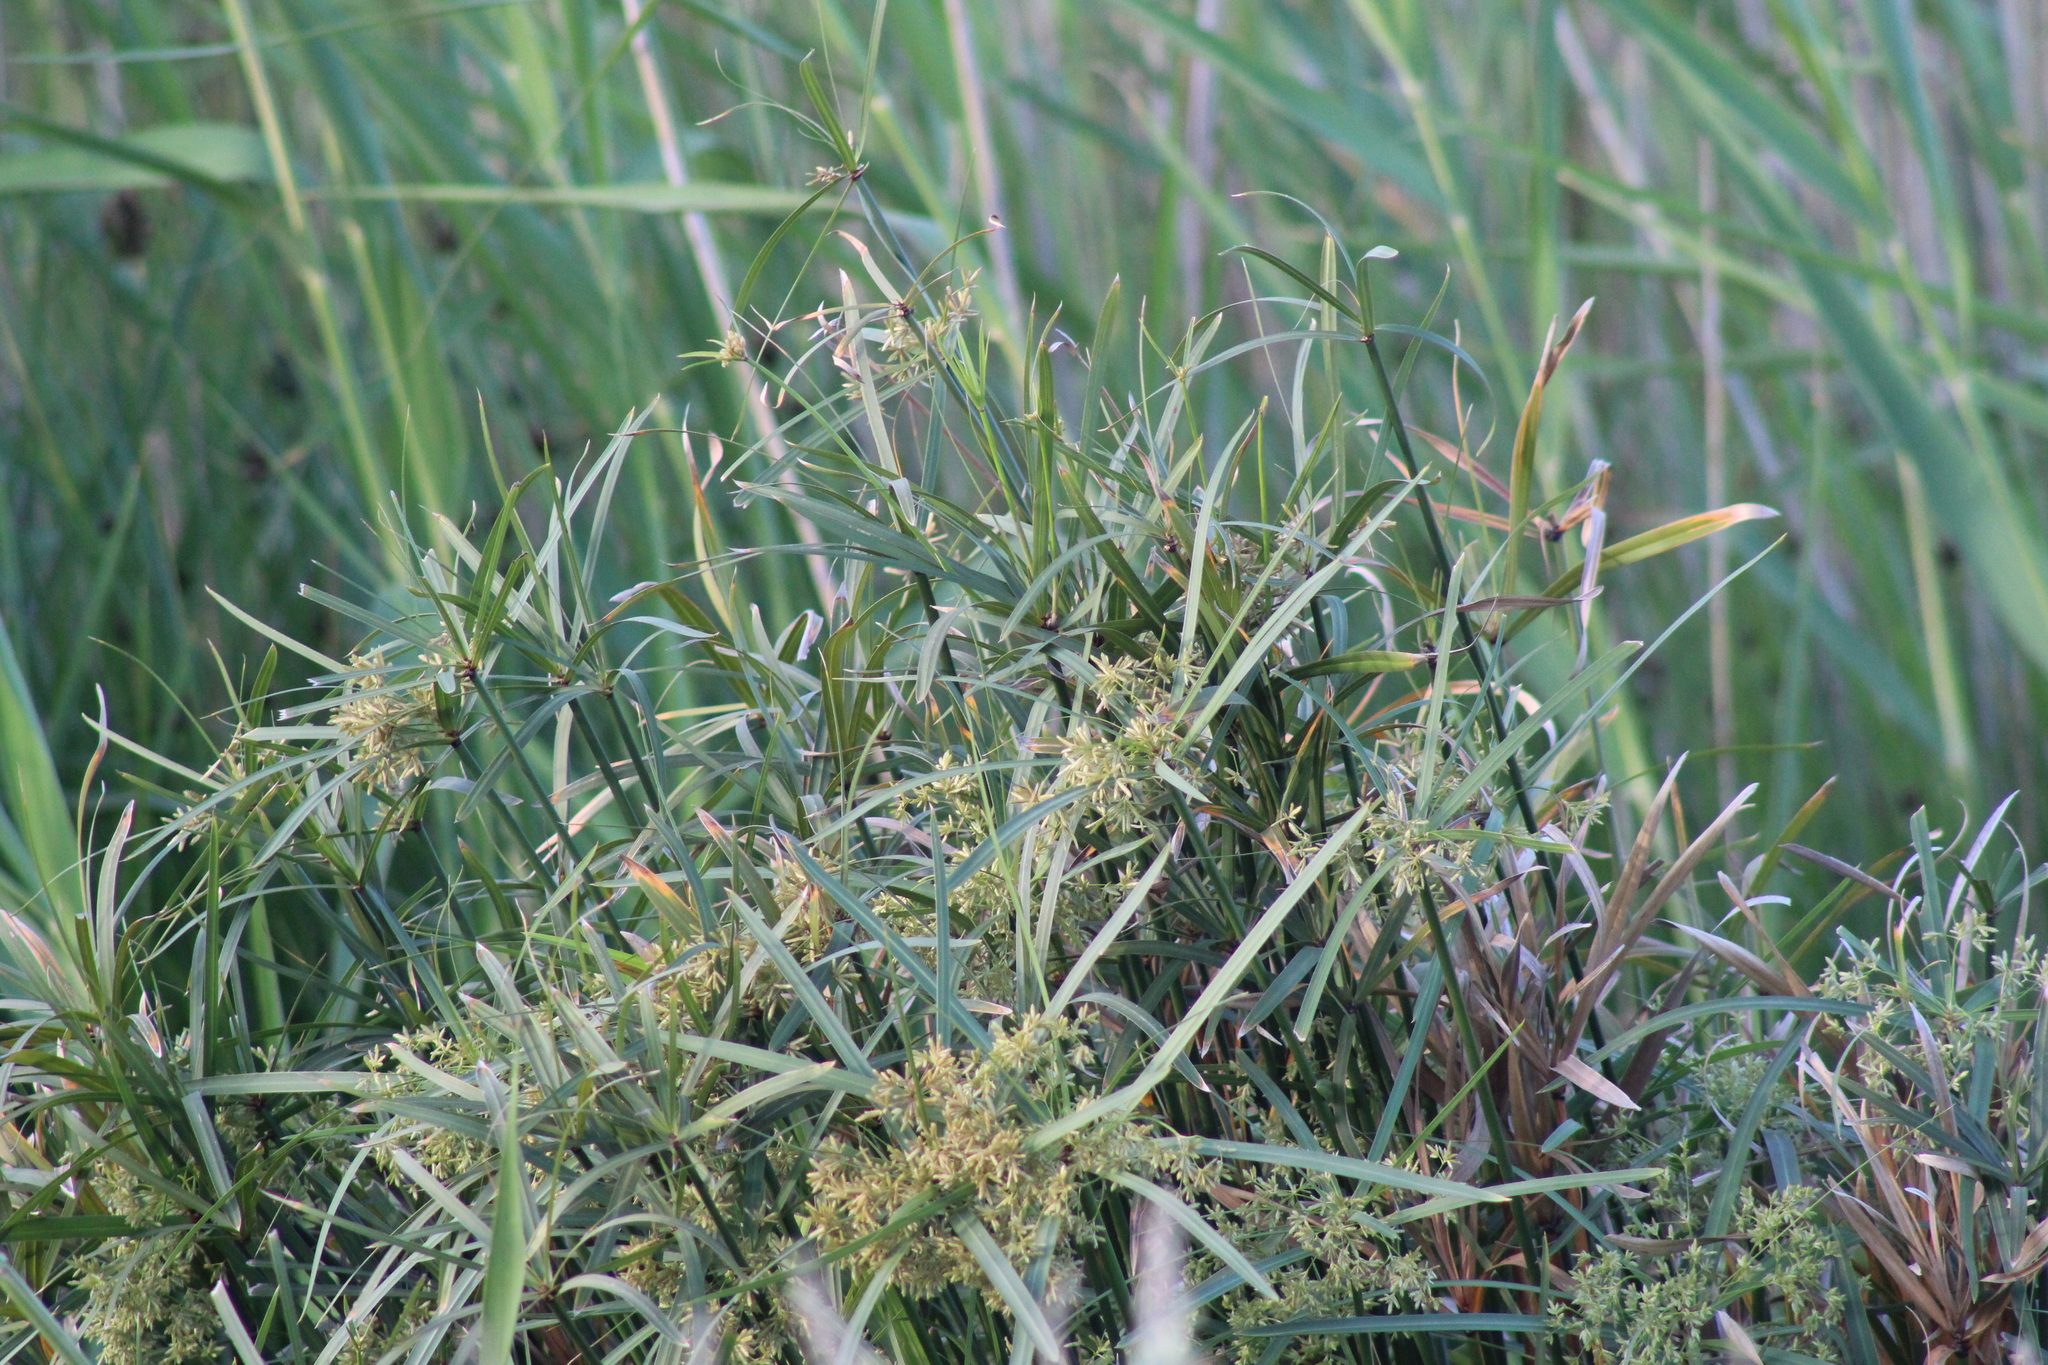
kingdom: Plantae
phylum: Tracheophyta
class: Liliopsida
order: Poales
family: Cyperaceae
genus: Cyperus
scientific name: Cyperus textilis
